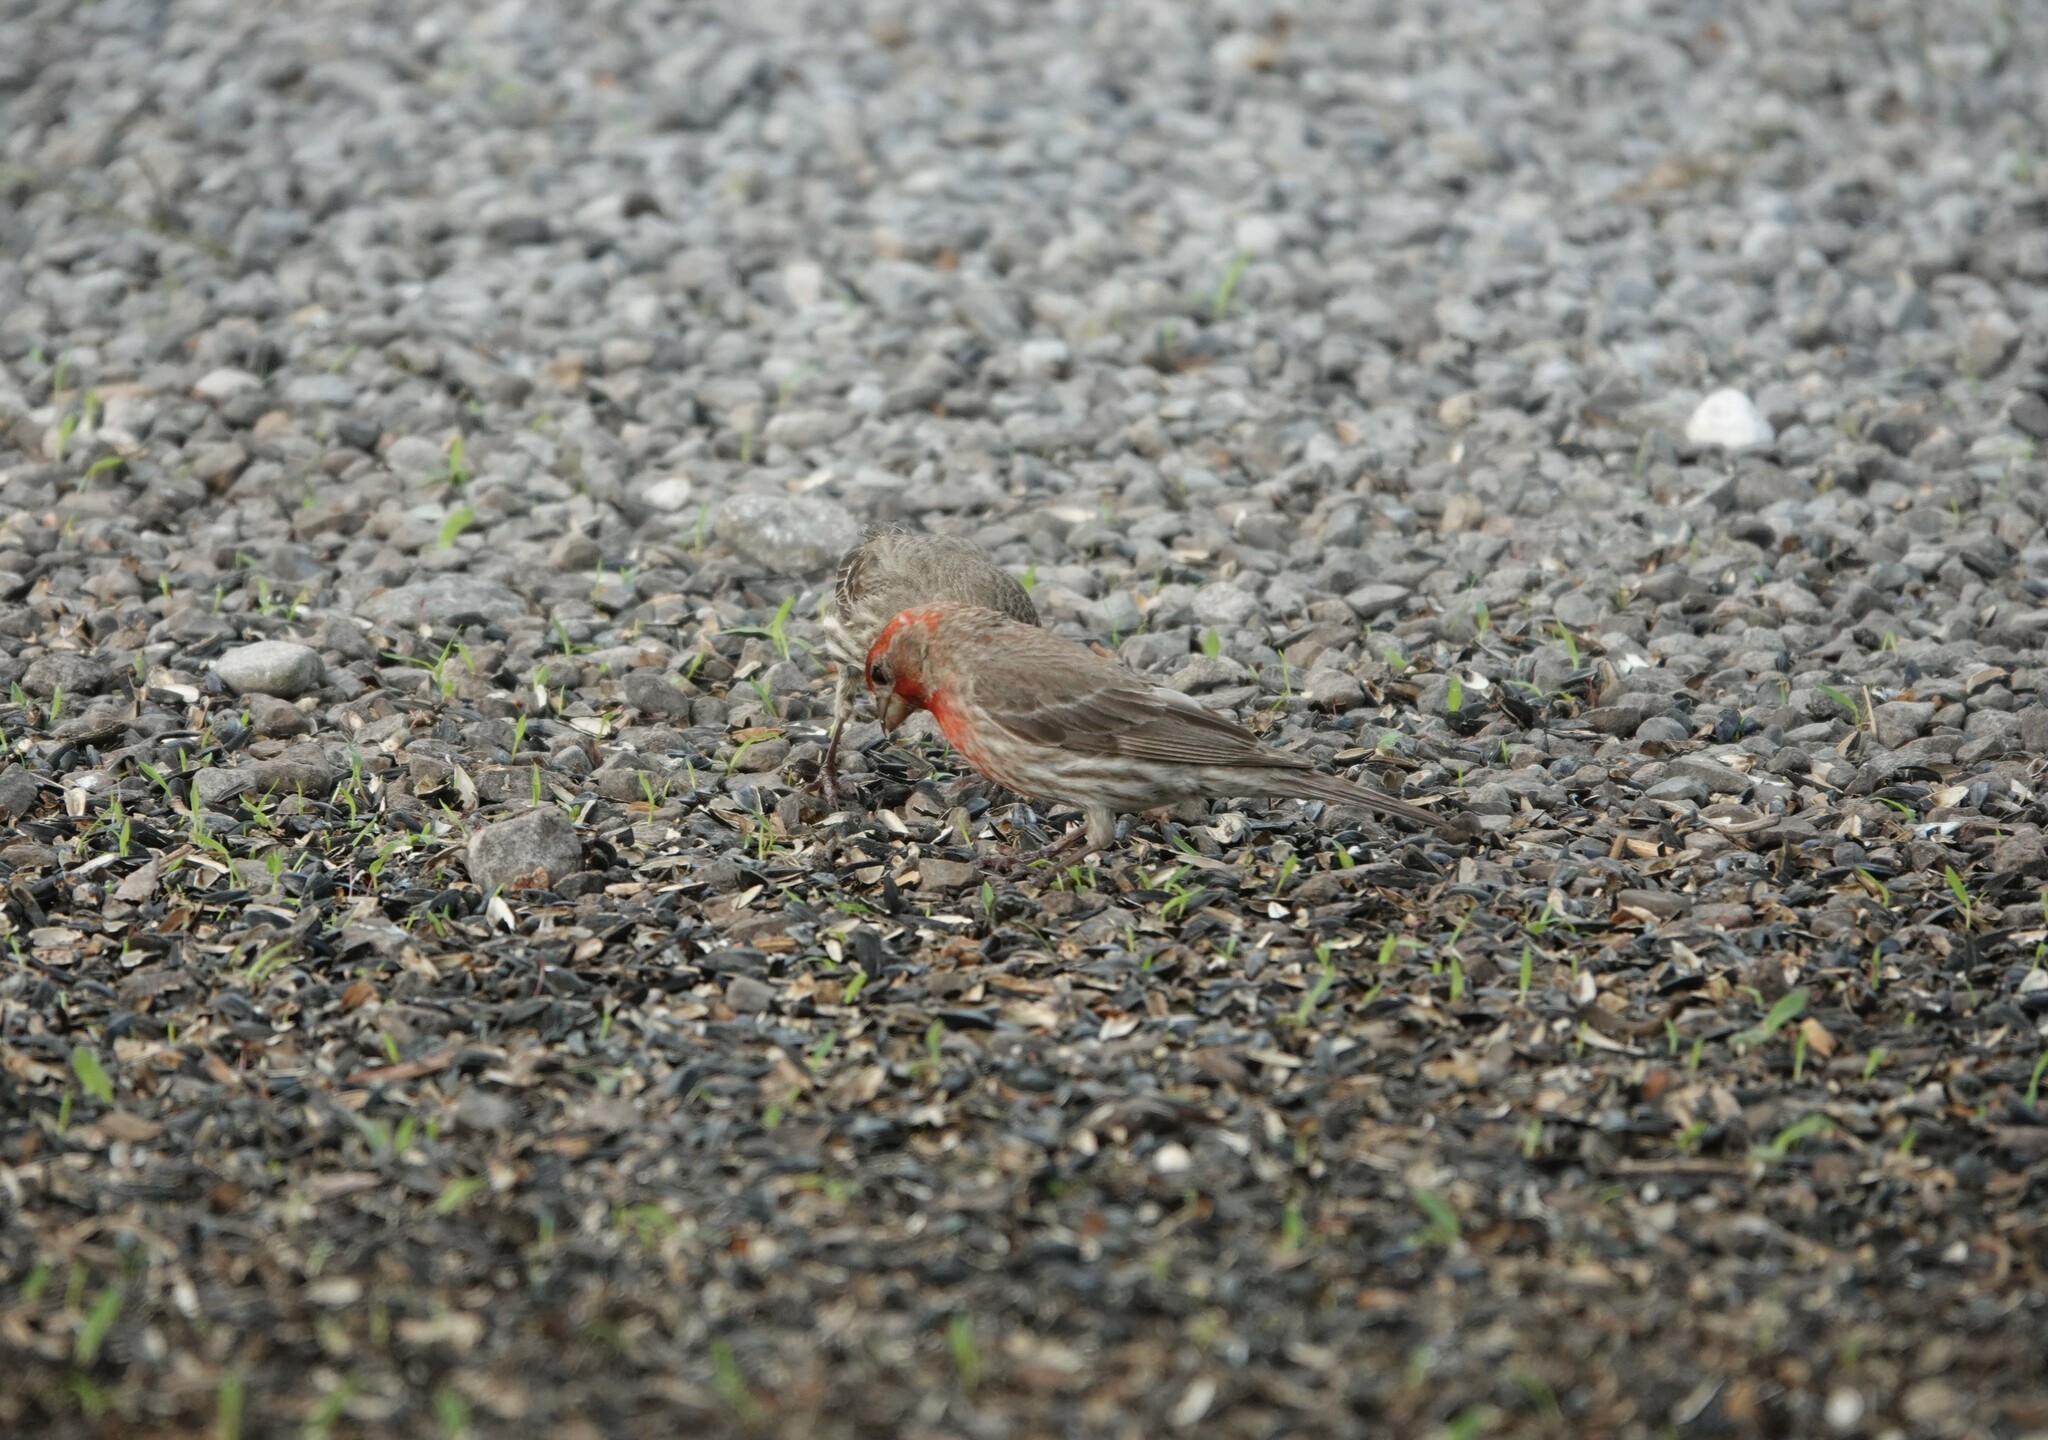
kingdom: Animalia
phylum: Chordata
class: Aves
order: Passeriformes
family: Fringillidae
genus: Haemorhous
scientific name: Haemorhous mexicanus
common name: House finch
